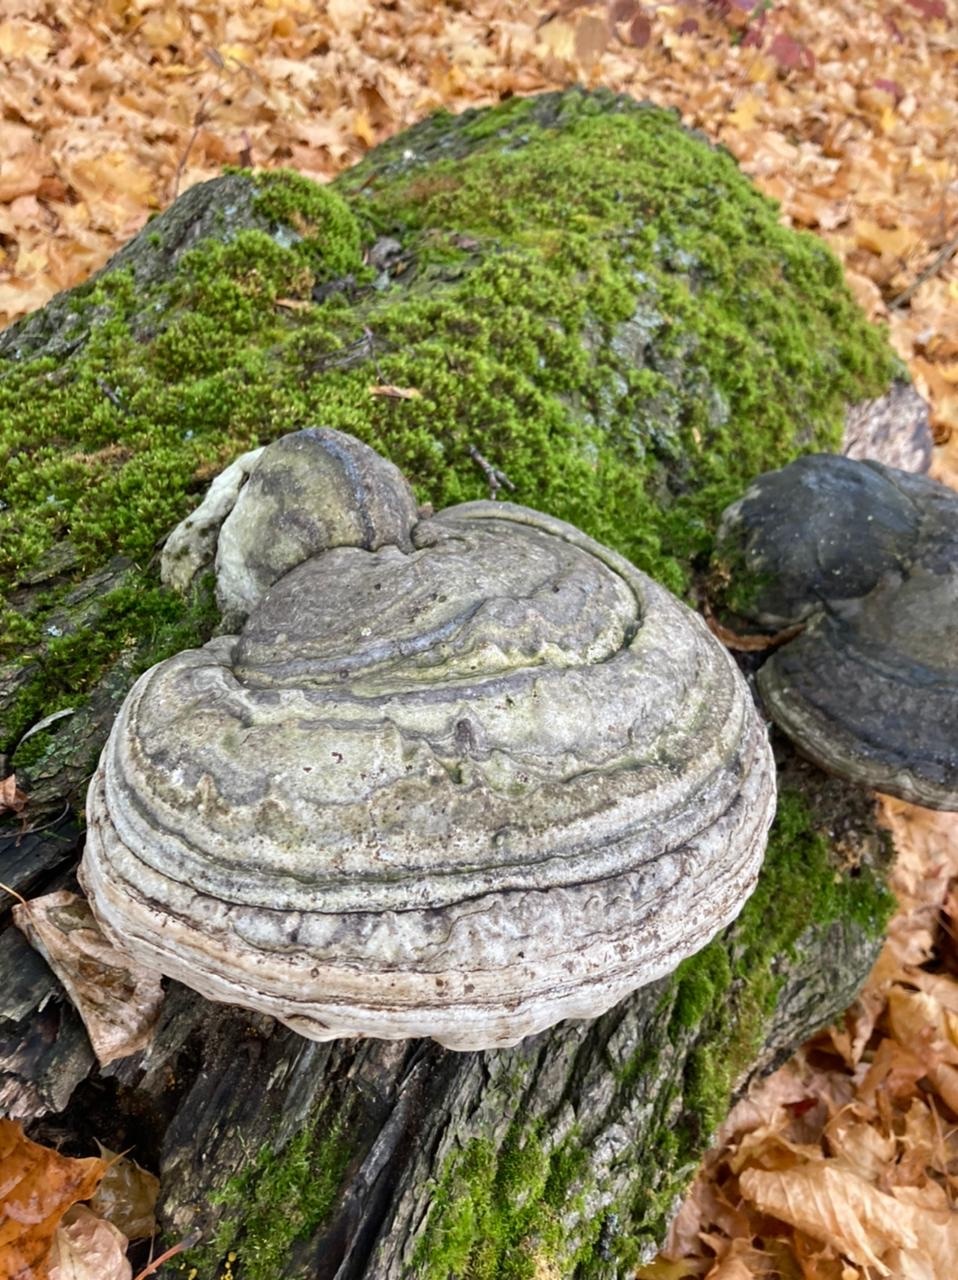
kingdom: Fungi
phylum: Basidiomycota
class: Agaricomycetes
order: Polyporales
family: Polyporaceae
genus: Fomes
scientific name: Fomes fomentarius
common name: Hoof fungus
